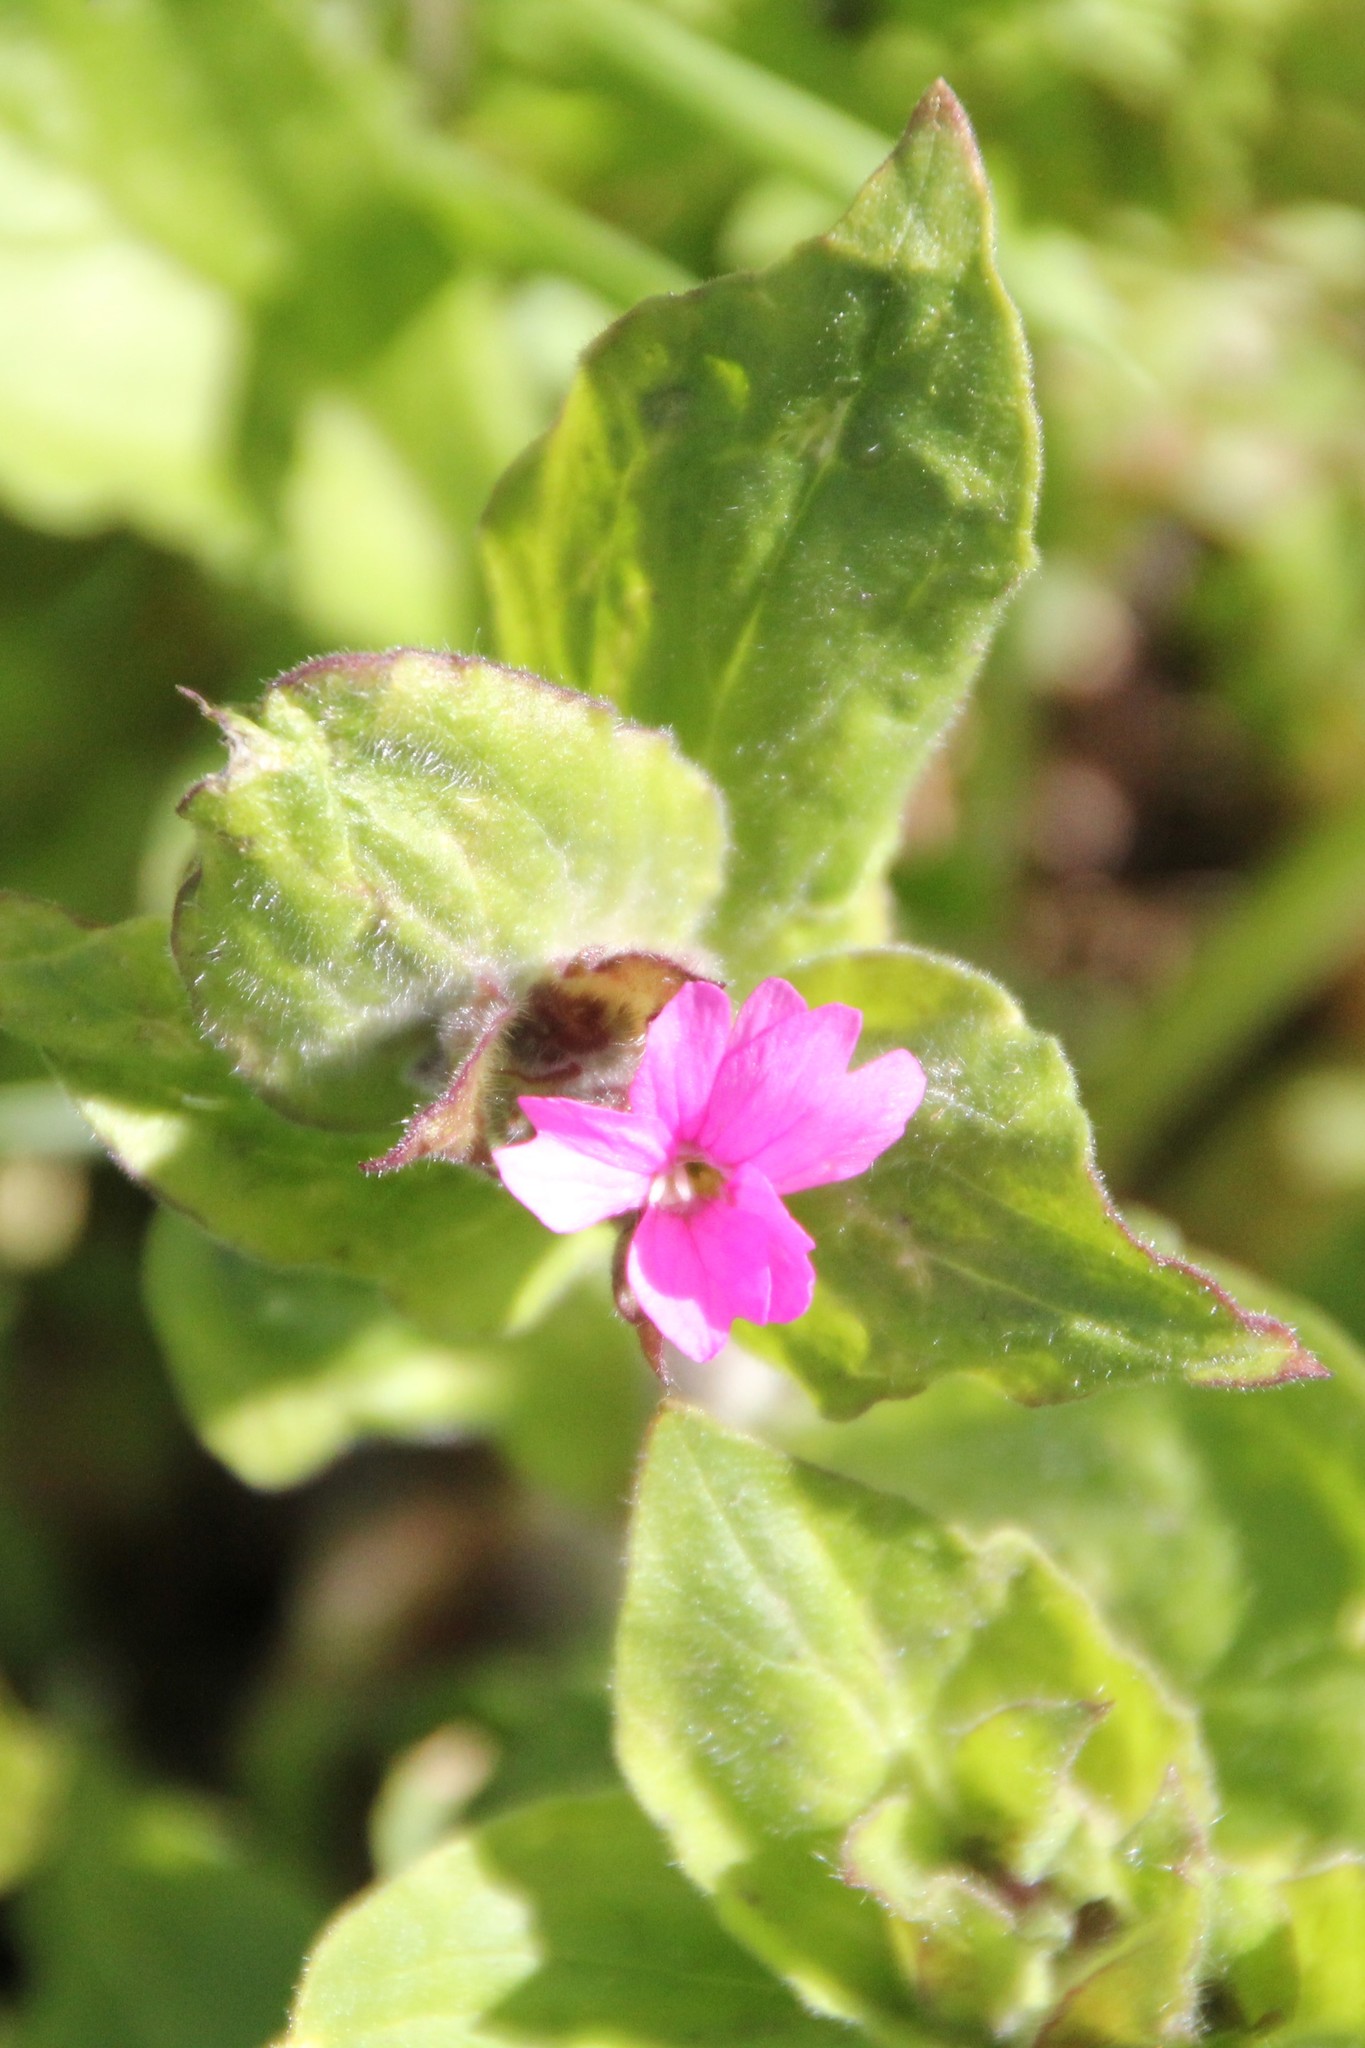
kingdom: Plantae
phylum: Tracheophyta
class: Magnoliopsida
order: Caryophyllales
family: Caryophyllaceae
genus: Silene
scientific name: Silene dioica
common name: Red campion
